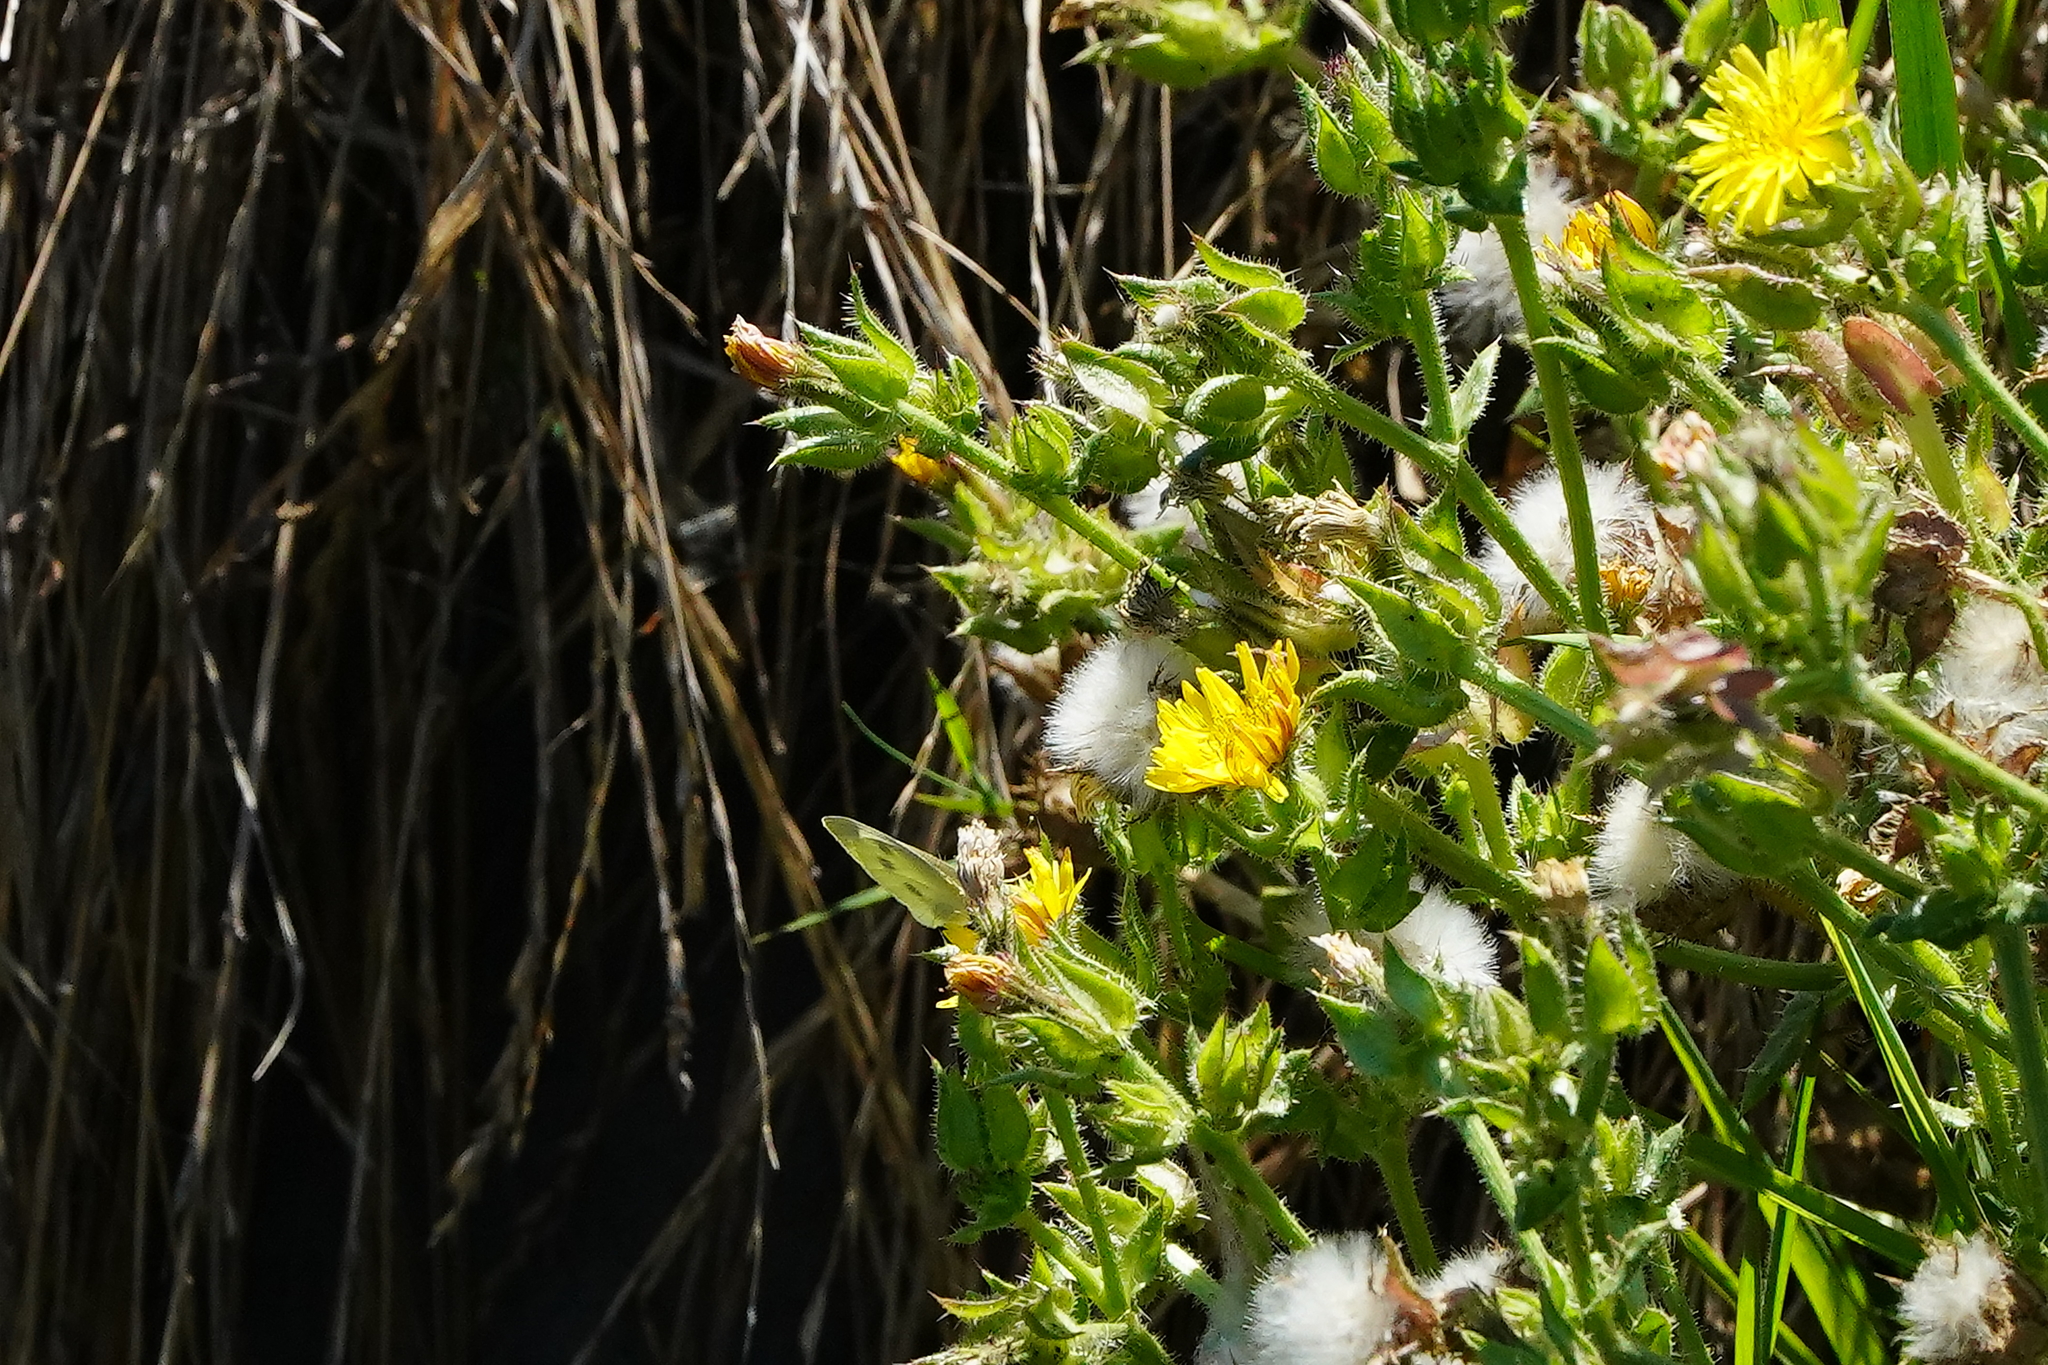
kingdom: Plantae
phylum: Tracheophyta
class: Magnoliopsida
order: Asterales
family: Asteraceae
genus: Helminthotheca
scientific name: Helminthotheca echioides
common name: Ox-tongue
